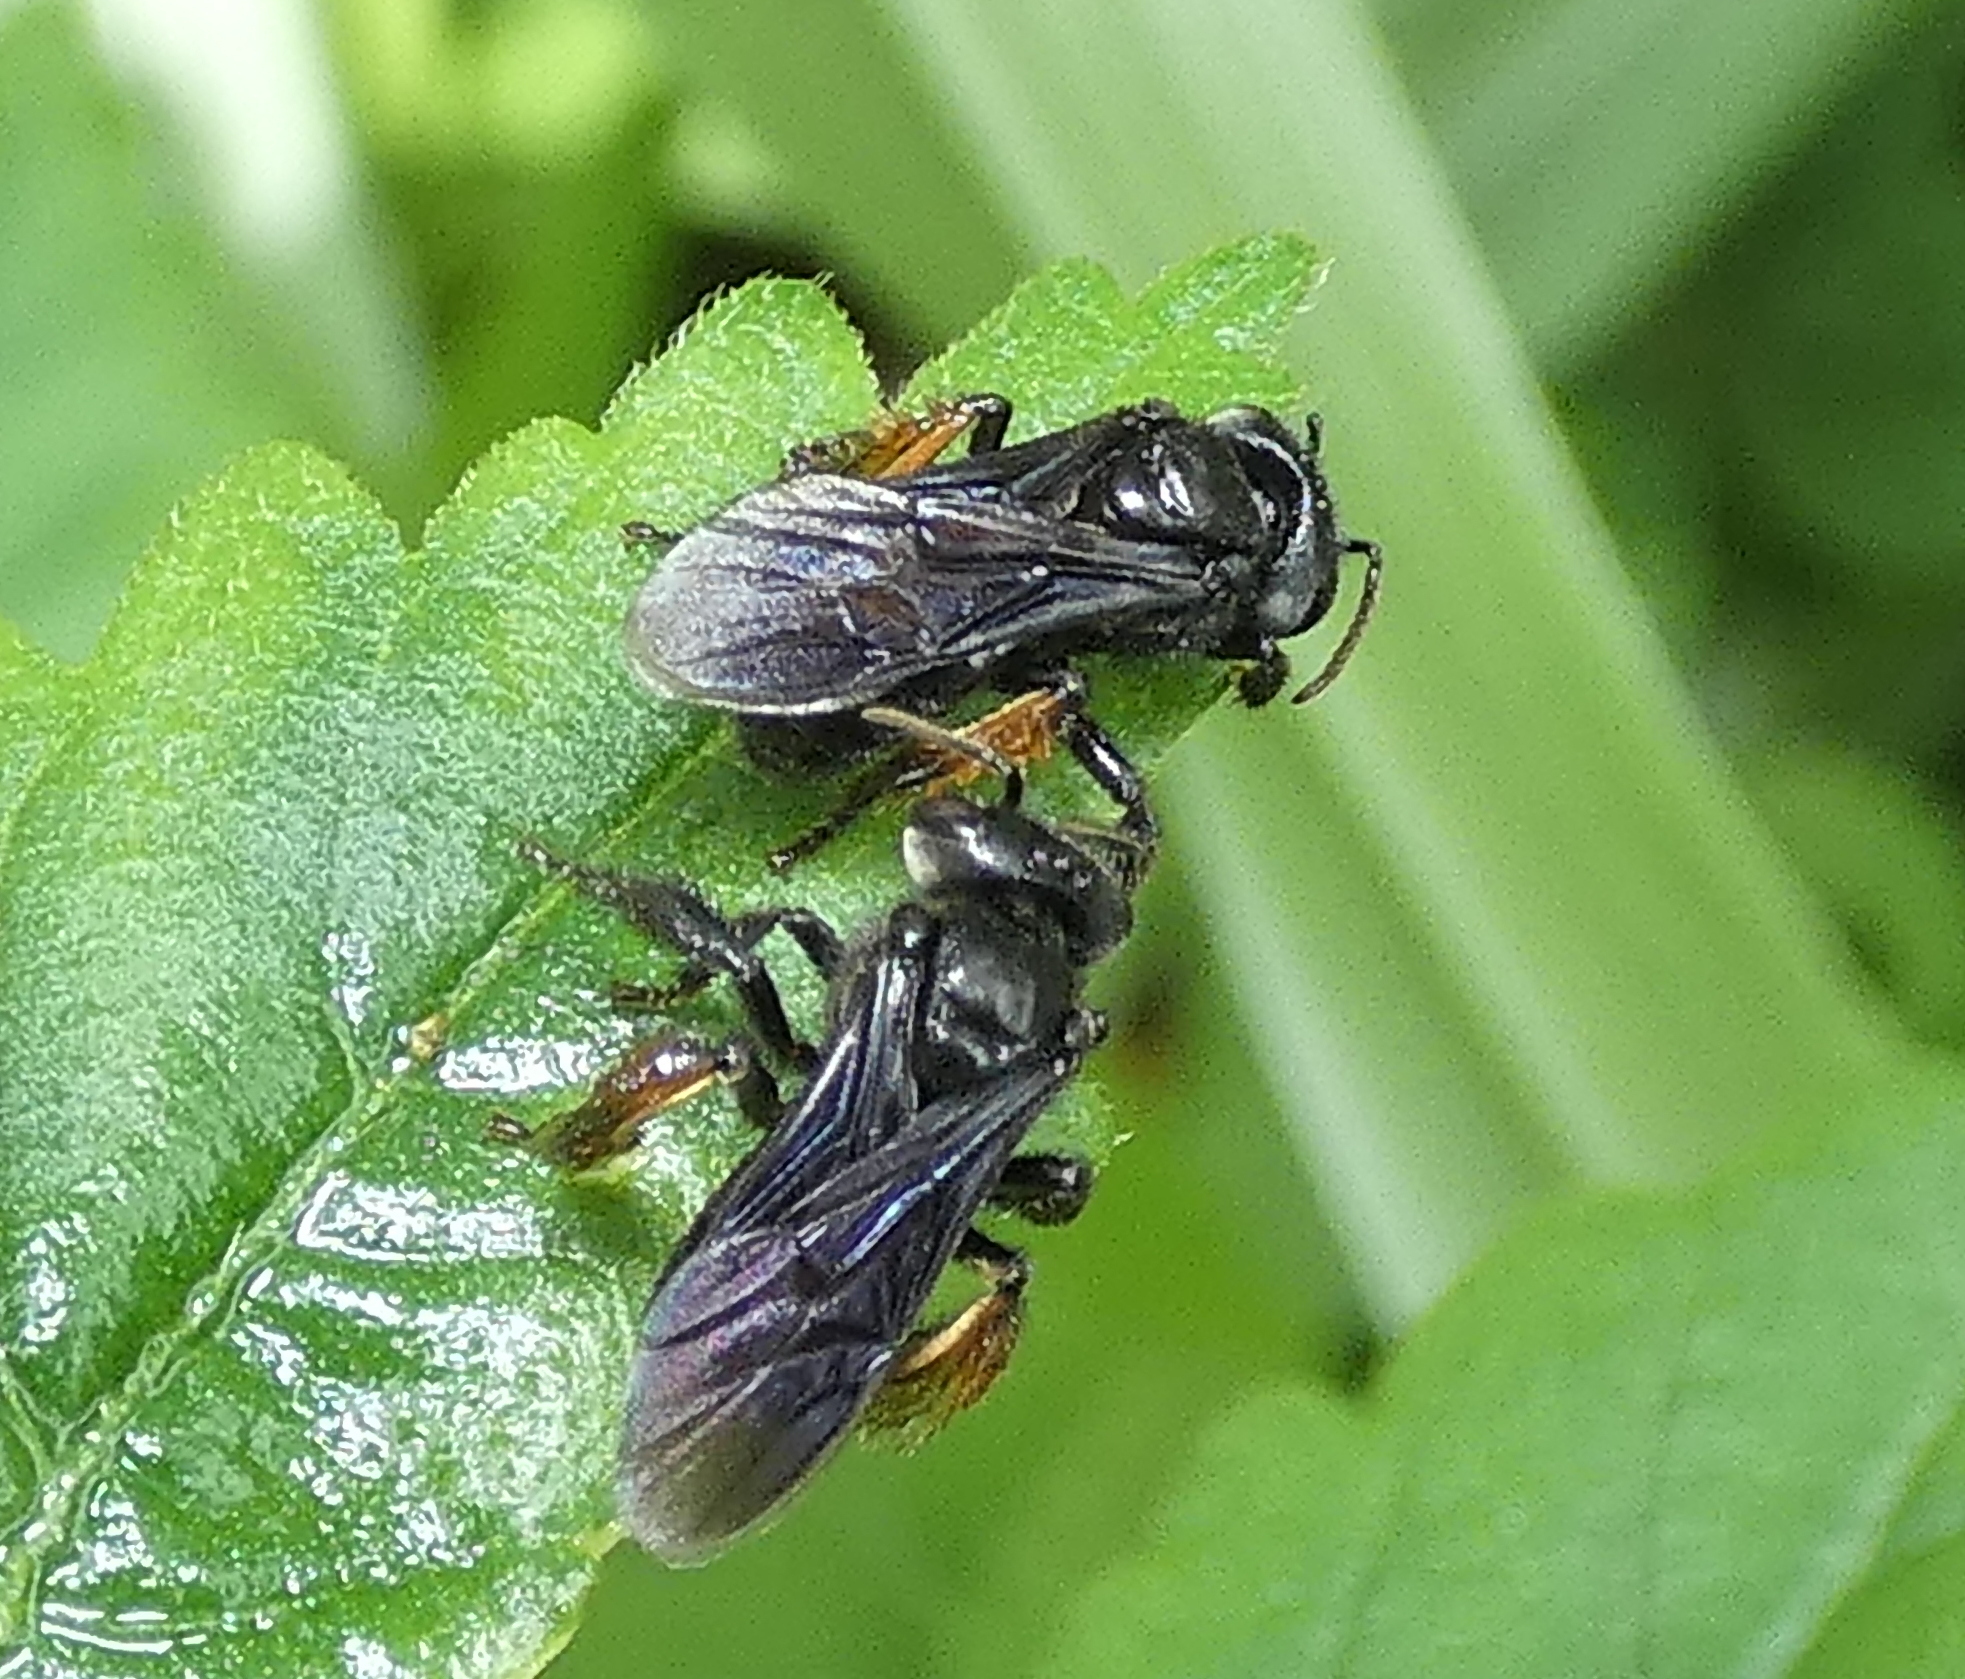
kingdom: Animalia
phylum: Arthropoda
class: Insecta
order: Hymenoptera
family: Apidae
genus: Trigona
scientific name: Trigona spinipes
